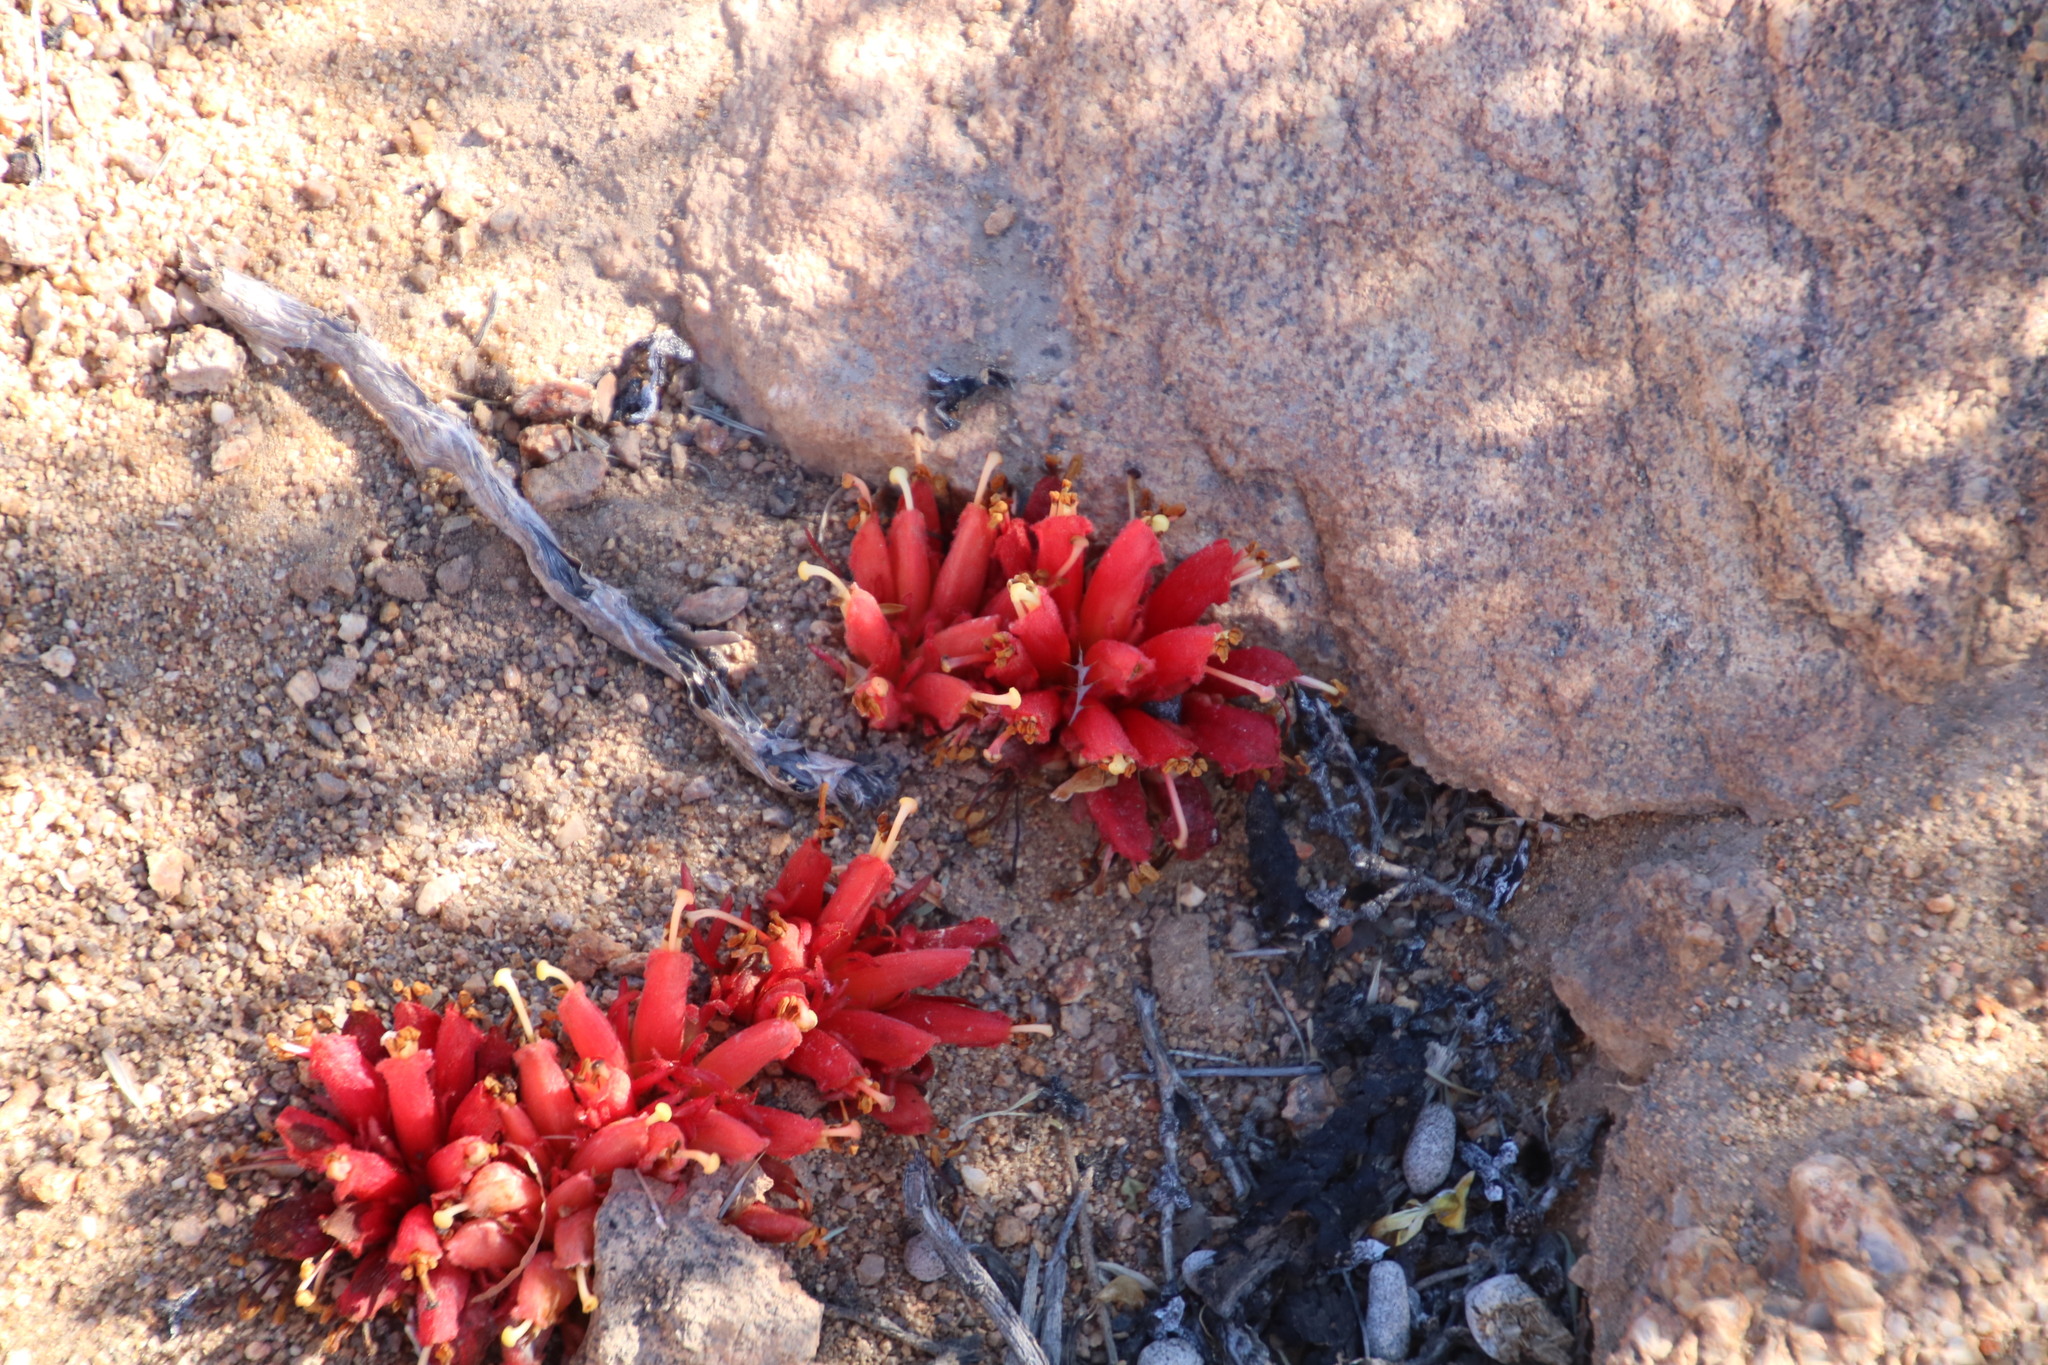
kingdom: Plantae
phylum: Tracheophyta
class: Magnoliopsida
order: Lamiales
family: Orobanchaceae
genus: Hyobanche
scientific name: Hyobanche glabrata
